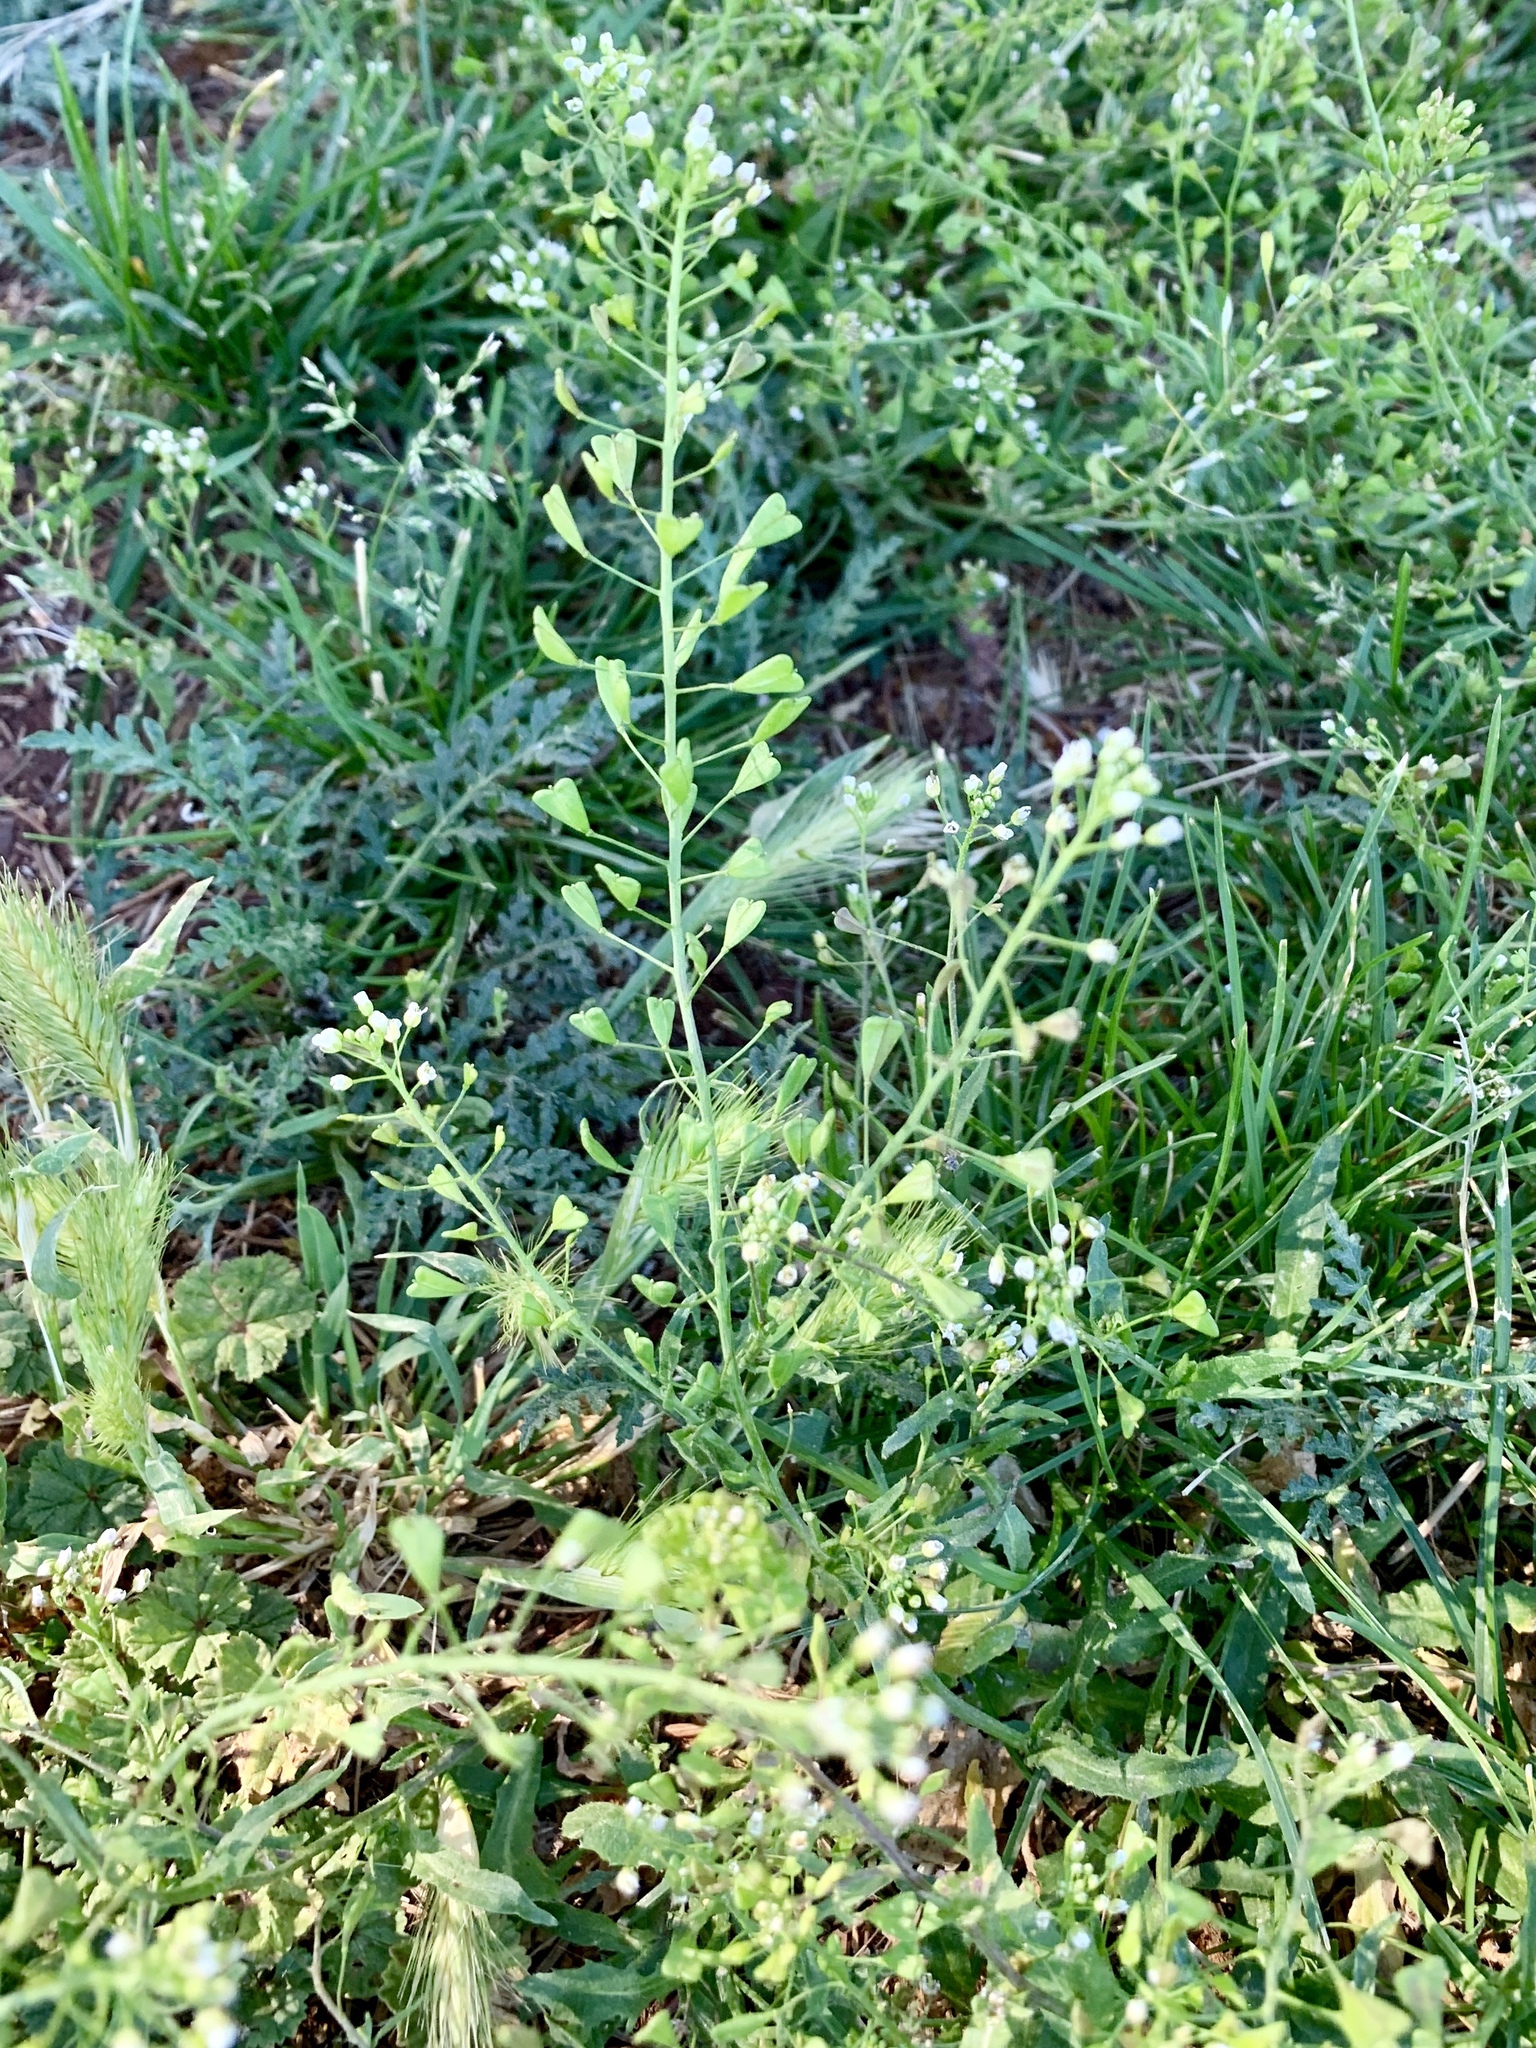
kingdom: Plantae
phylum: Tracheophyta
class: Magnoliopsida
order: Brassicales
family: Brassicaceae
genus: Capsella
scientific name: Capsella bursa-pastoris
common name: Shepherd's purse
